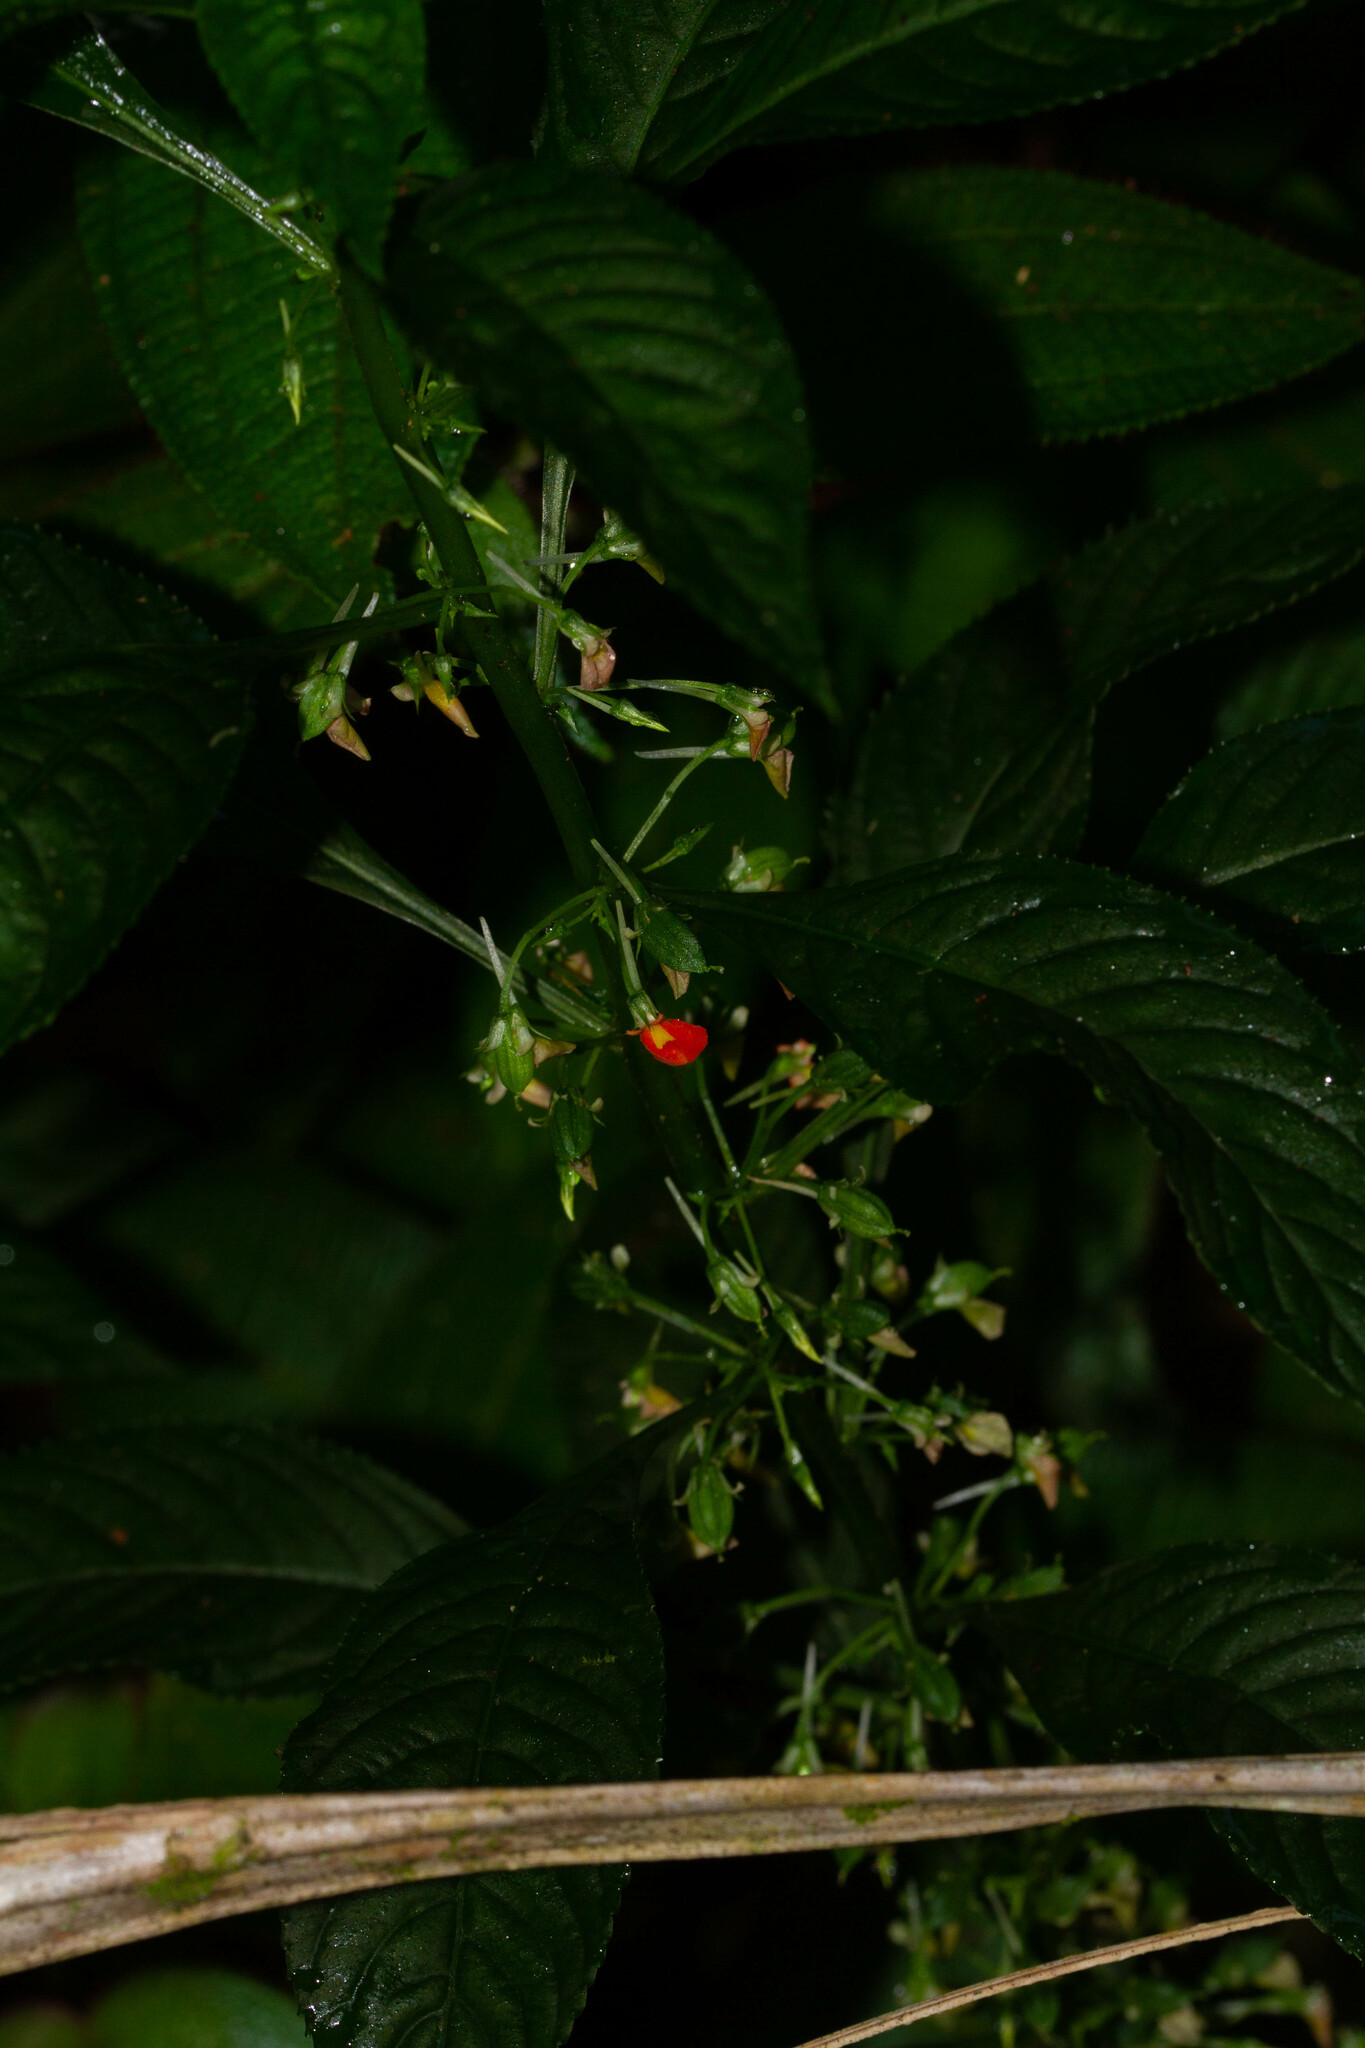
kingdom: Plantae
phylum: Tracheophyta
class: Magnoliopsida
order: Malpighiales
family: Violaceae
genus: Noisettia
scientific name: Noisettia orchidiflora
